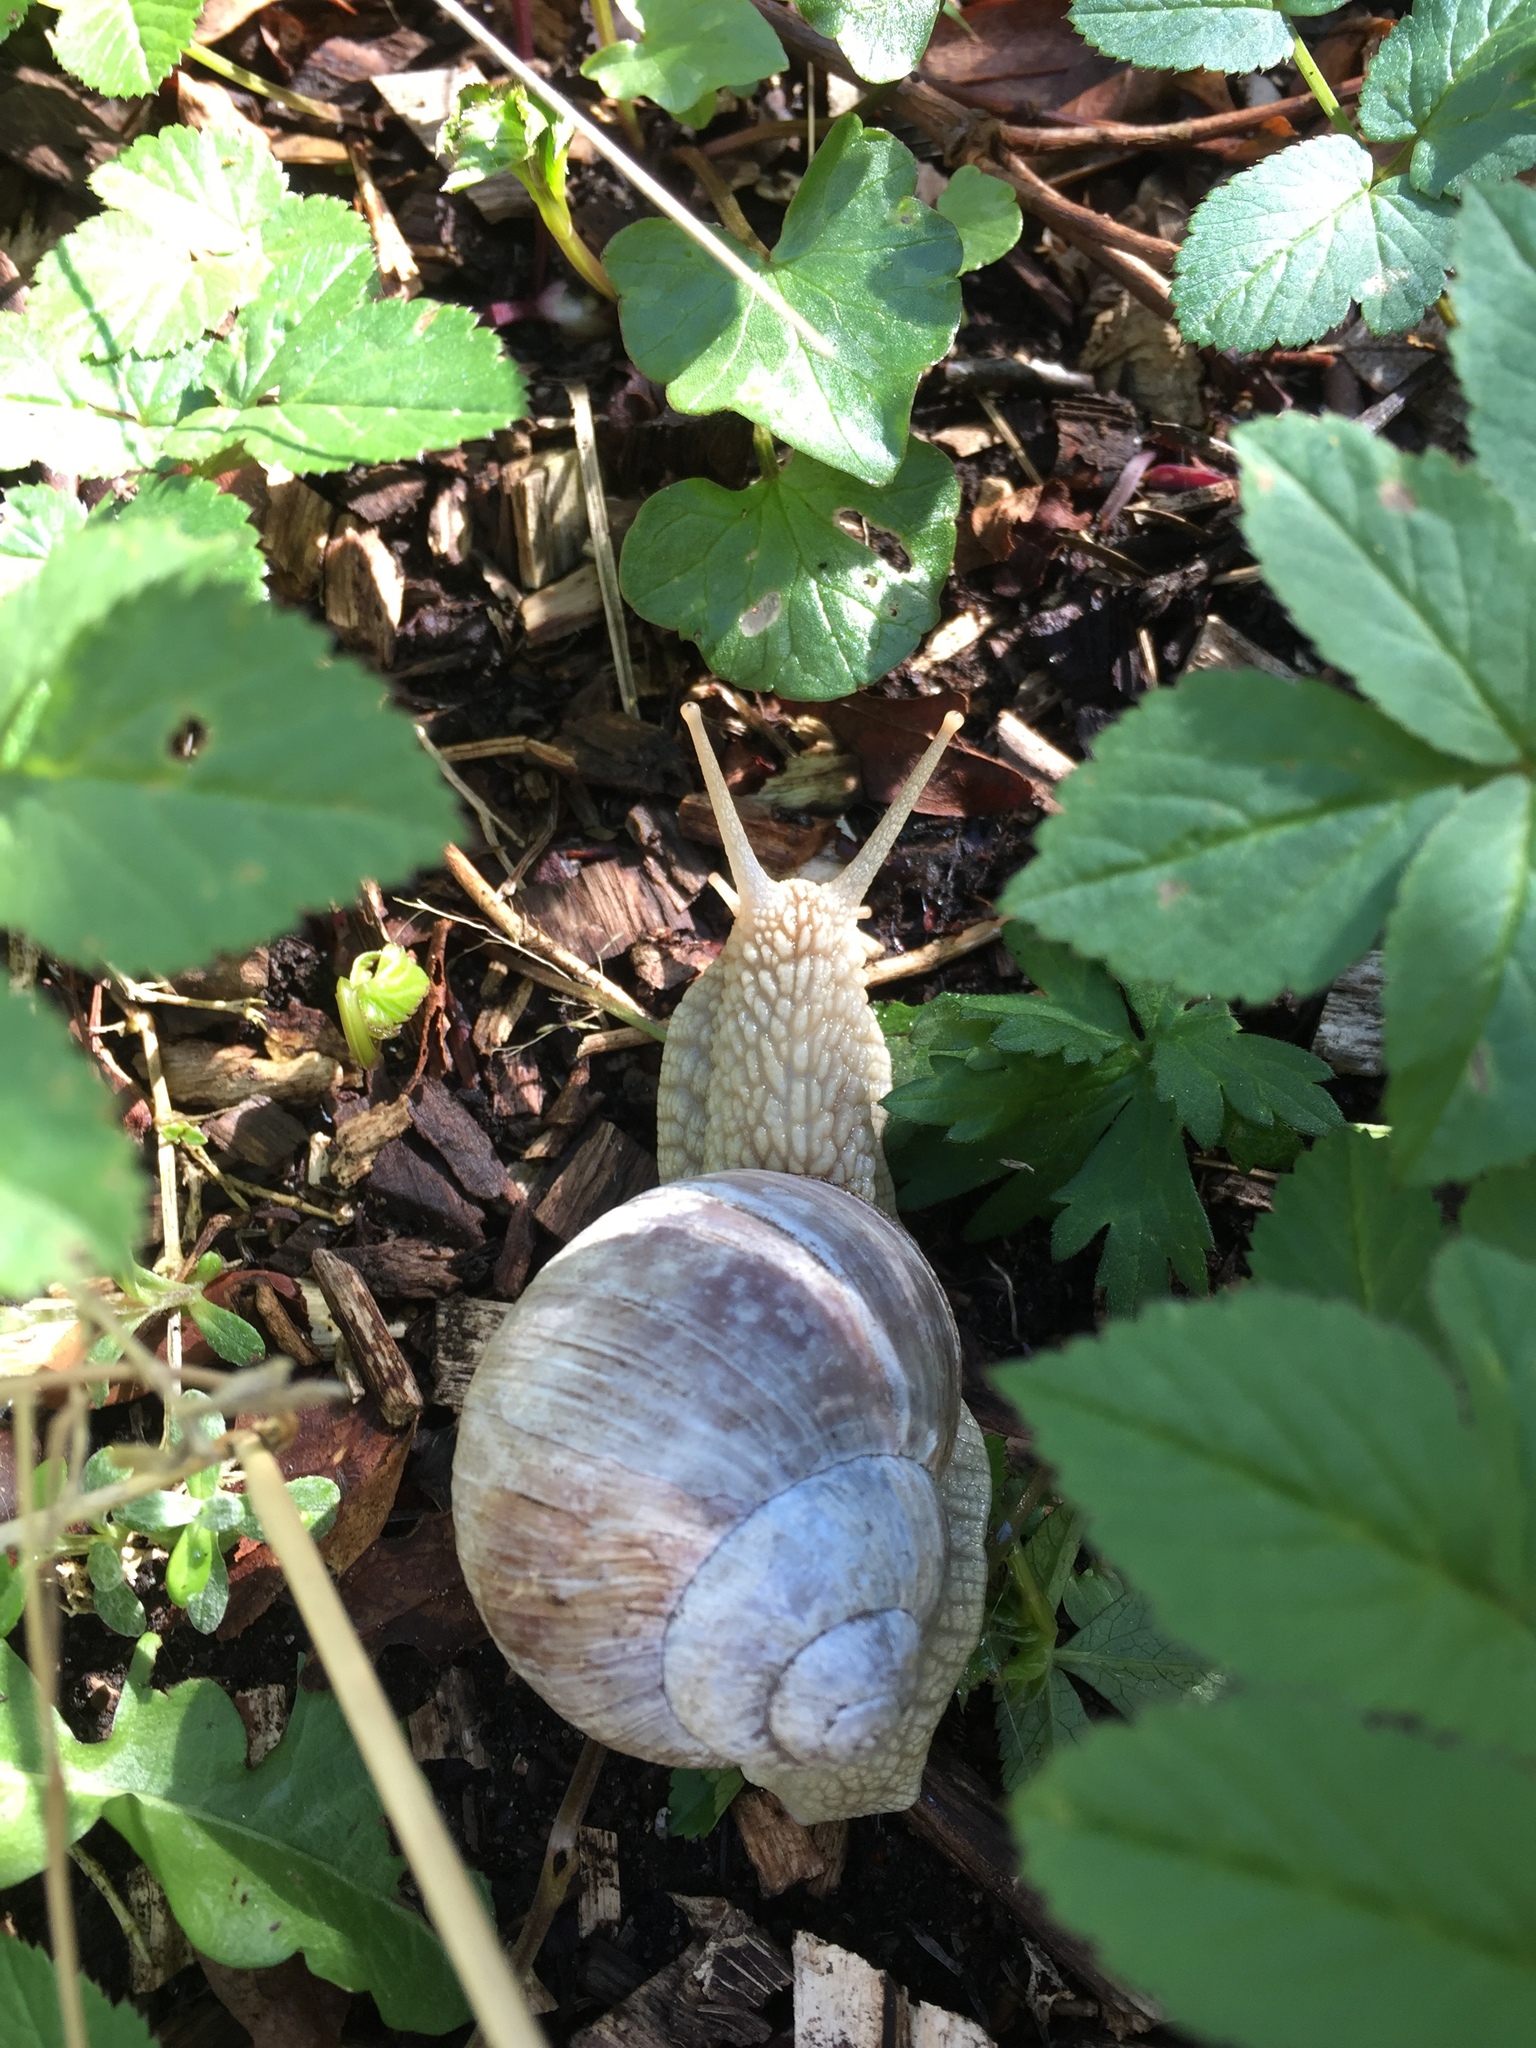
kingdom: Animalia
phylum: Mollusca
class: Gastropoda
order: Stylommatophora
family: Helicidae
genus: Helix
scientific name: Helix pomatia
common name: Roman snail
